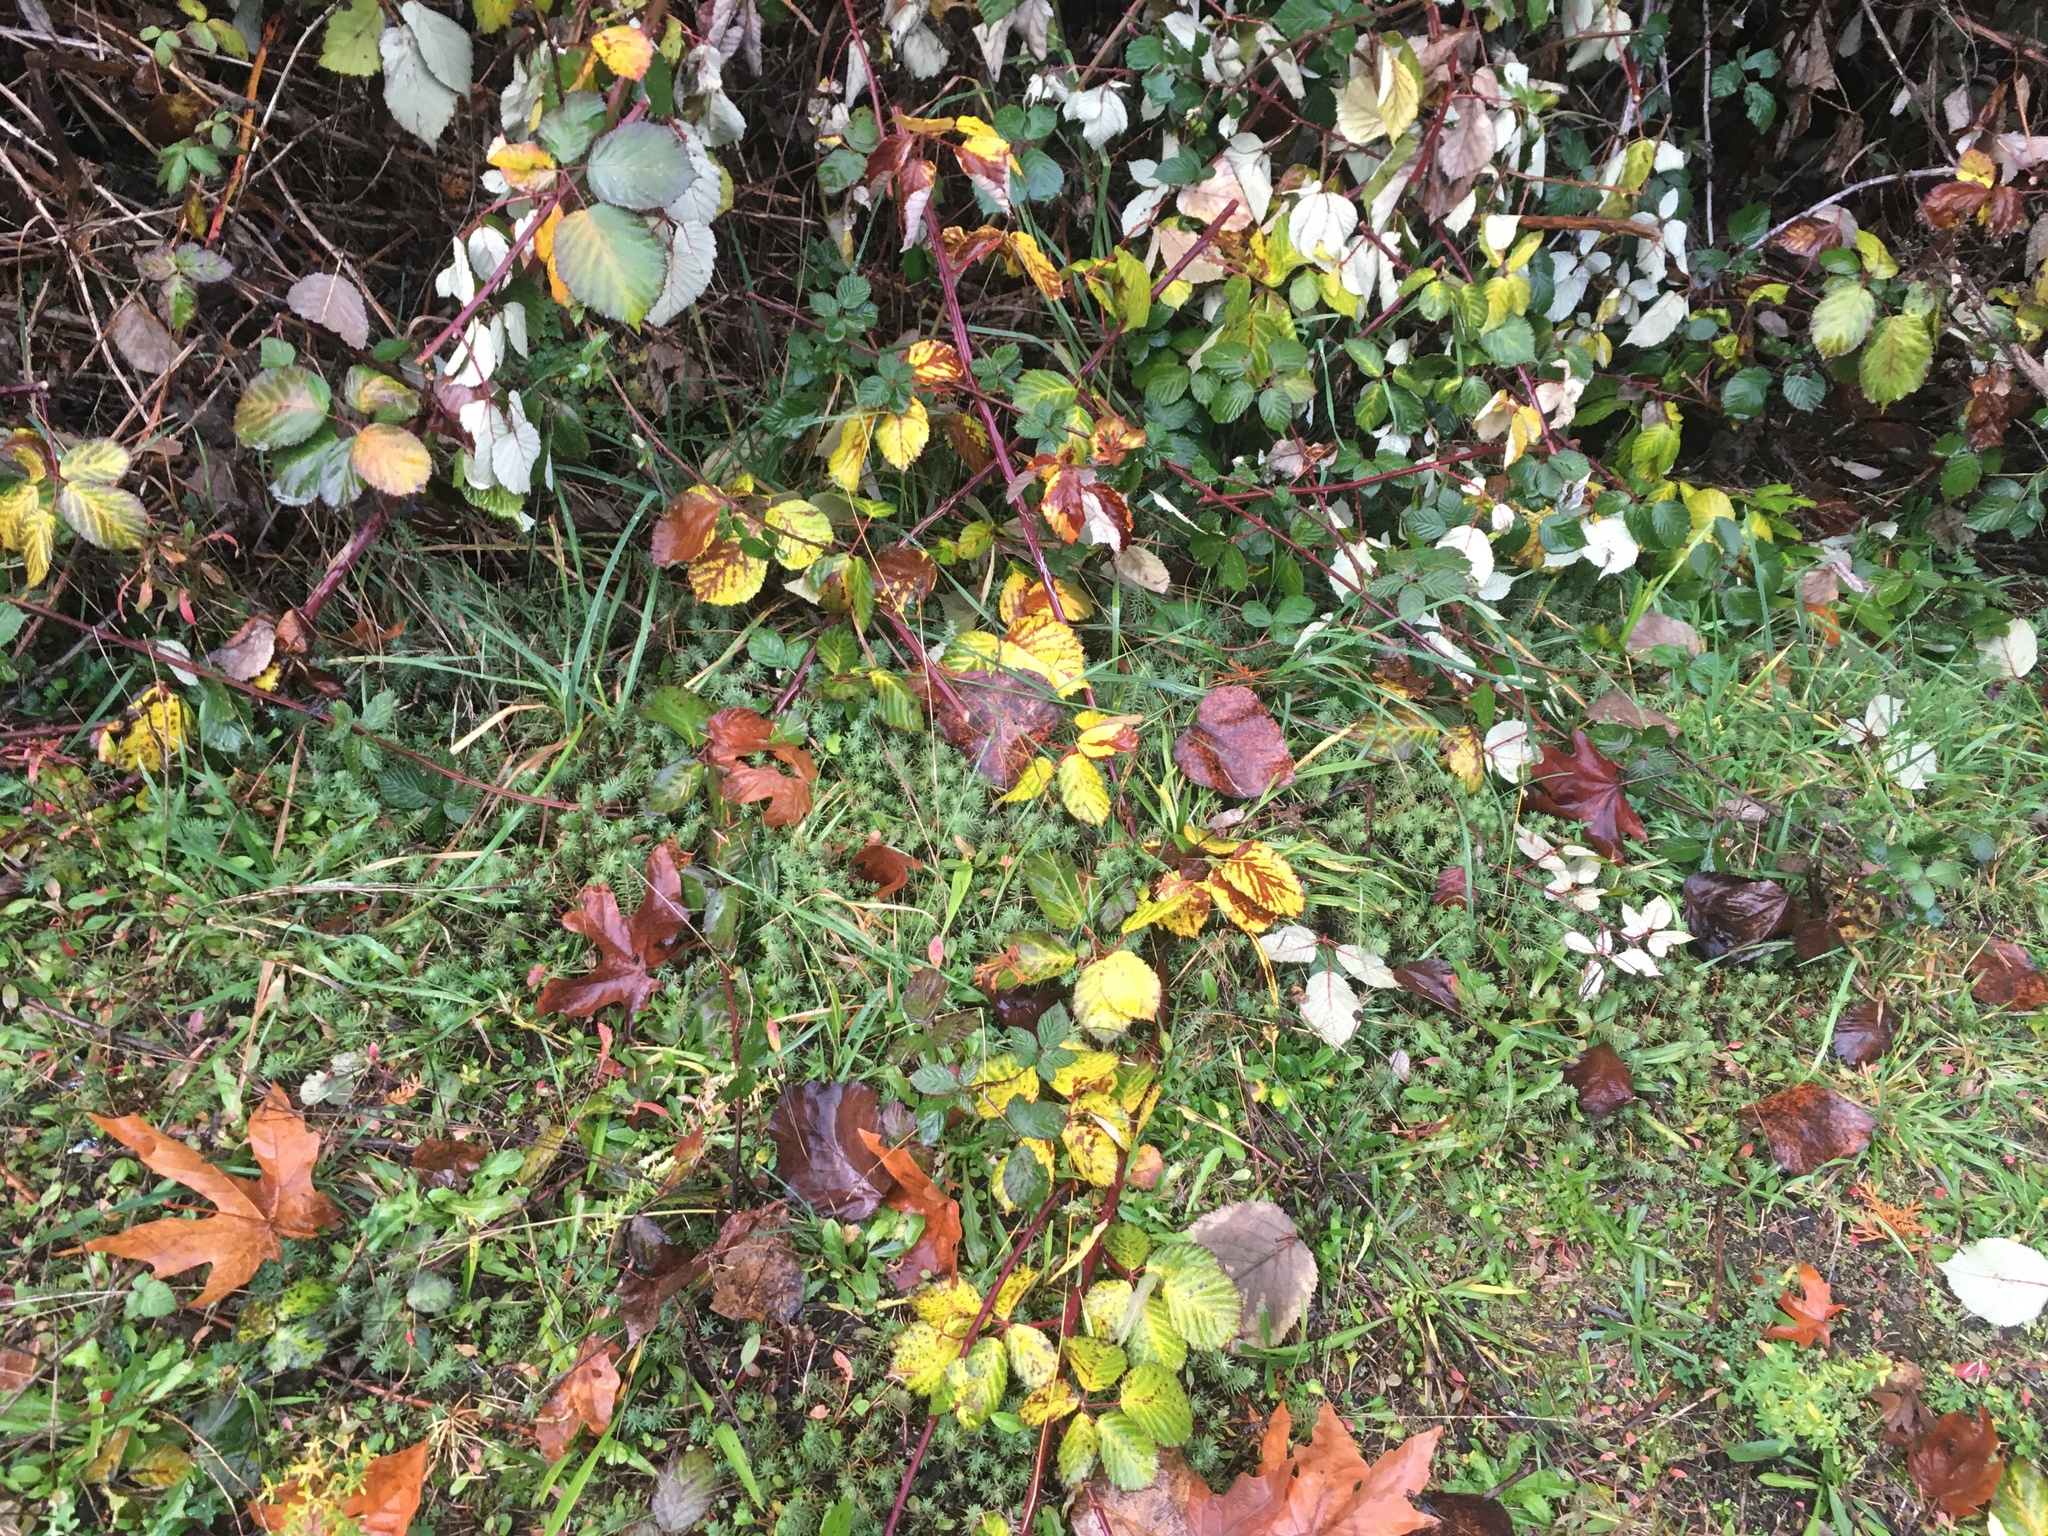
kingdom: Plantae
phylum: Tracheophyta
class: Magnoliopsida
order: Saxifragales
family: Crassulaceae
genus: Petrosedum
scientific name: Petrosedum
